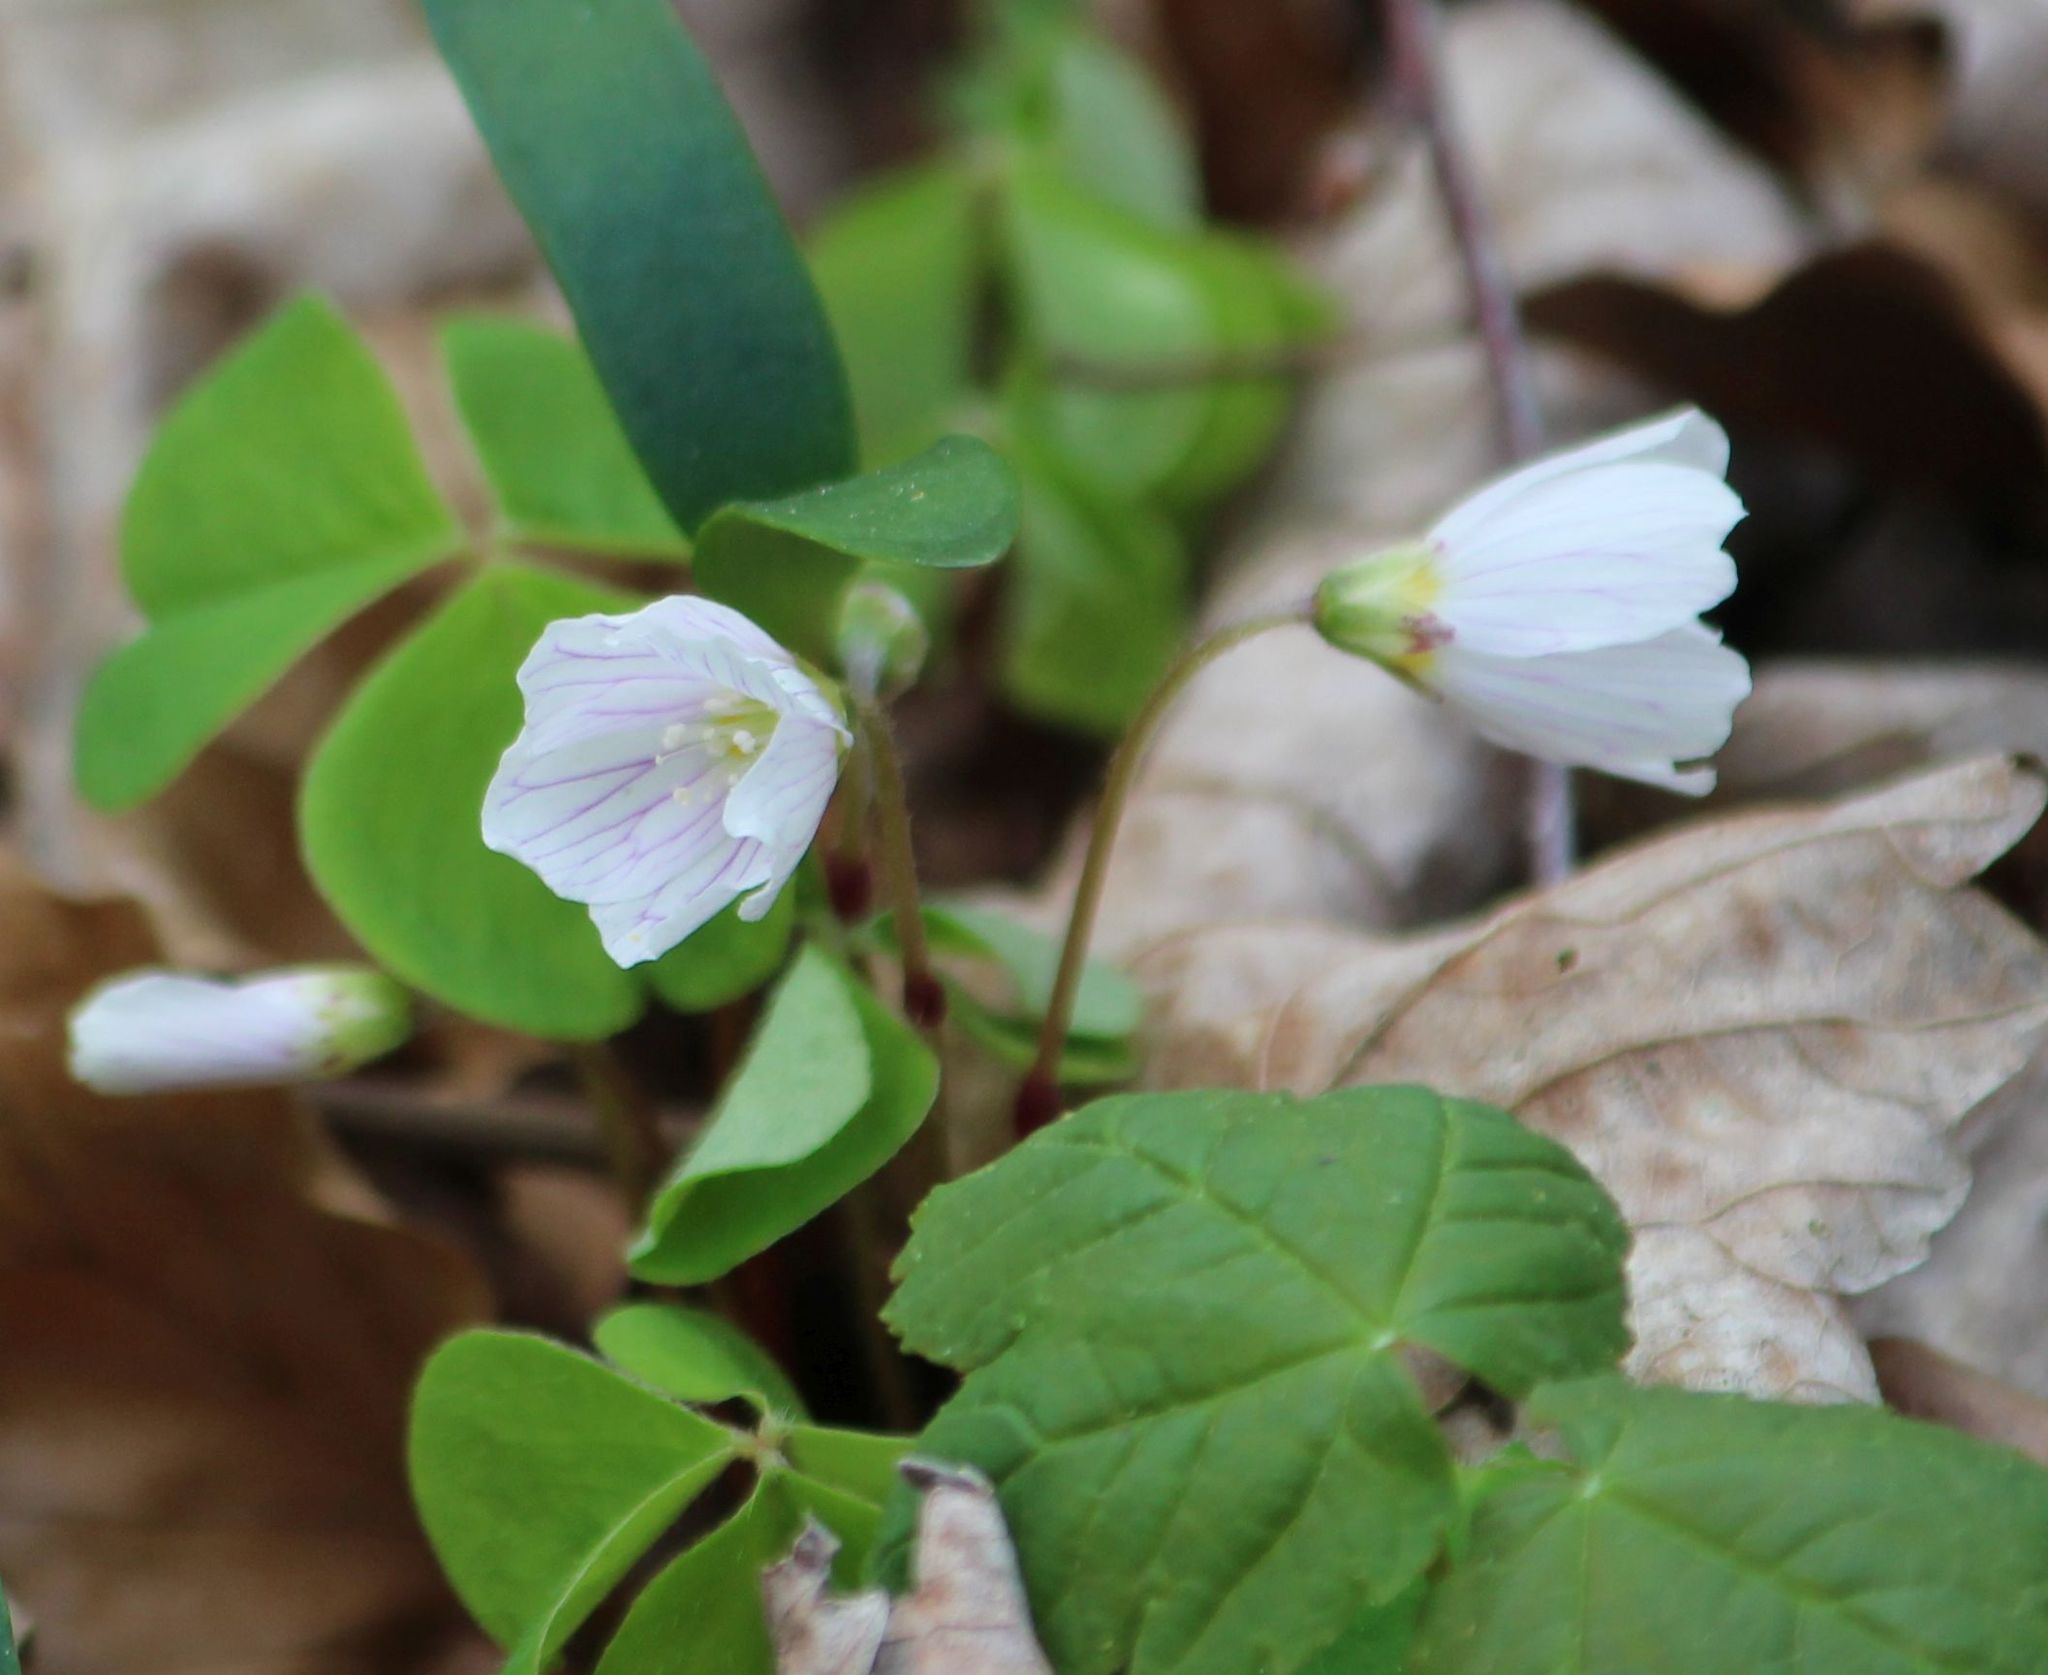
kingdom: Plantae
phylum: Tracheophyta
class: Magnoliopsida
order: Oxalidales
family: Oxalidaceae
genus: Oxalis
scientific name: Oxalis acetosella
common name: Wood-sorrel
